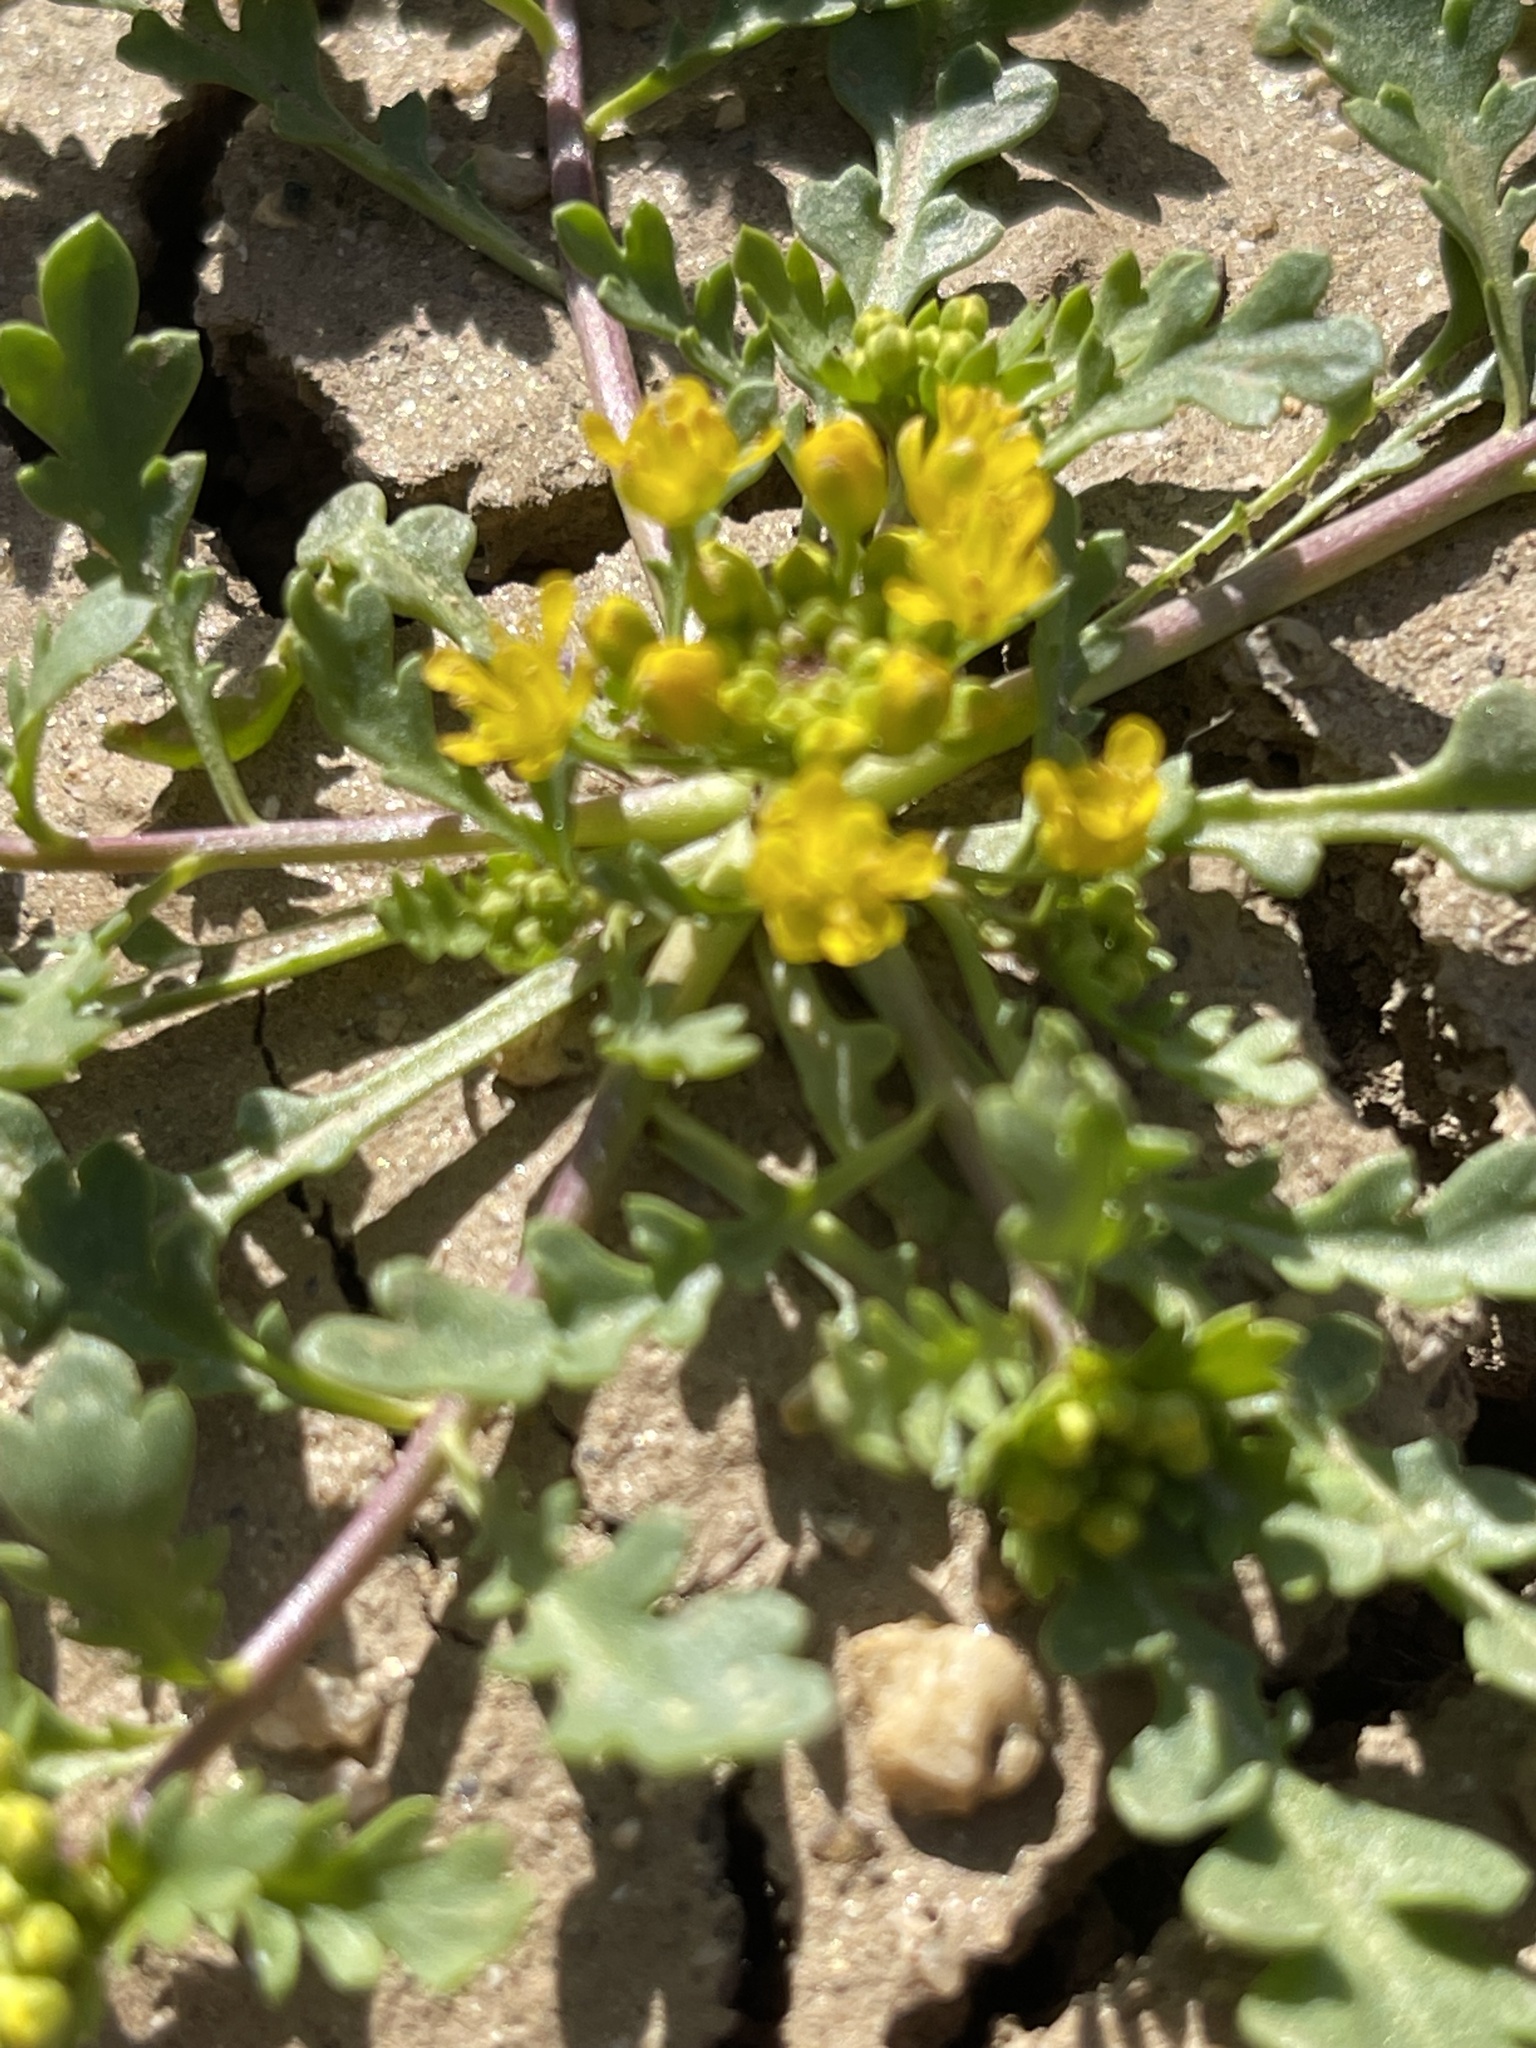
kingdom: Plantae
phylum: Tracheophyta
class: Magnoliopsida
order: Brassicales
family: Brassicaceae
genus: Lepidium
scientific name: Lepidium flavum
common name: Yellow pepperwort
